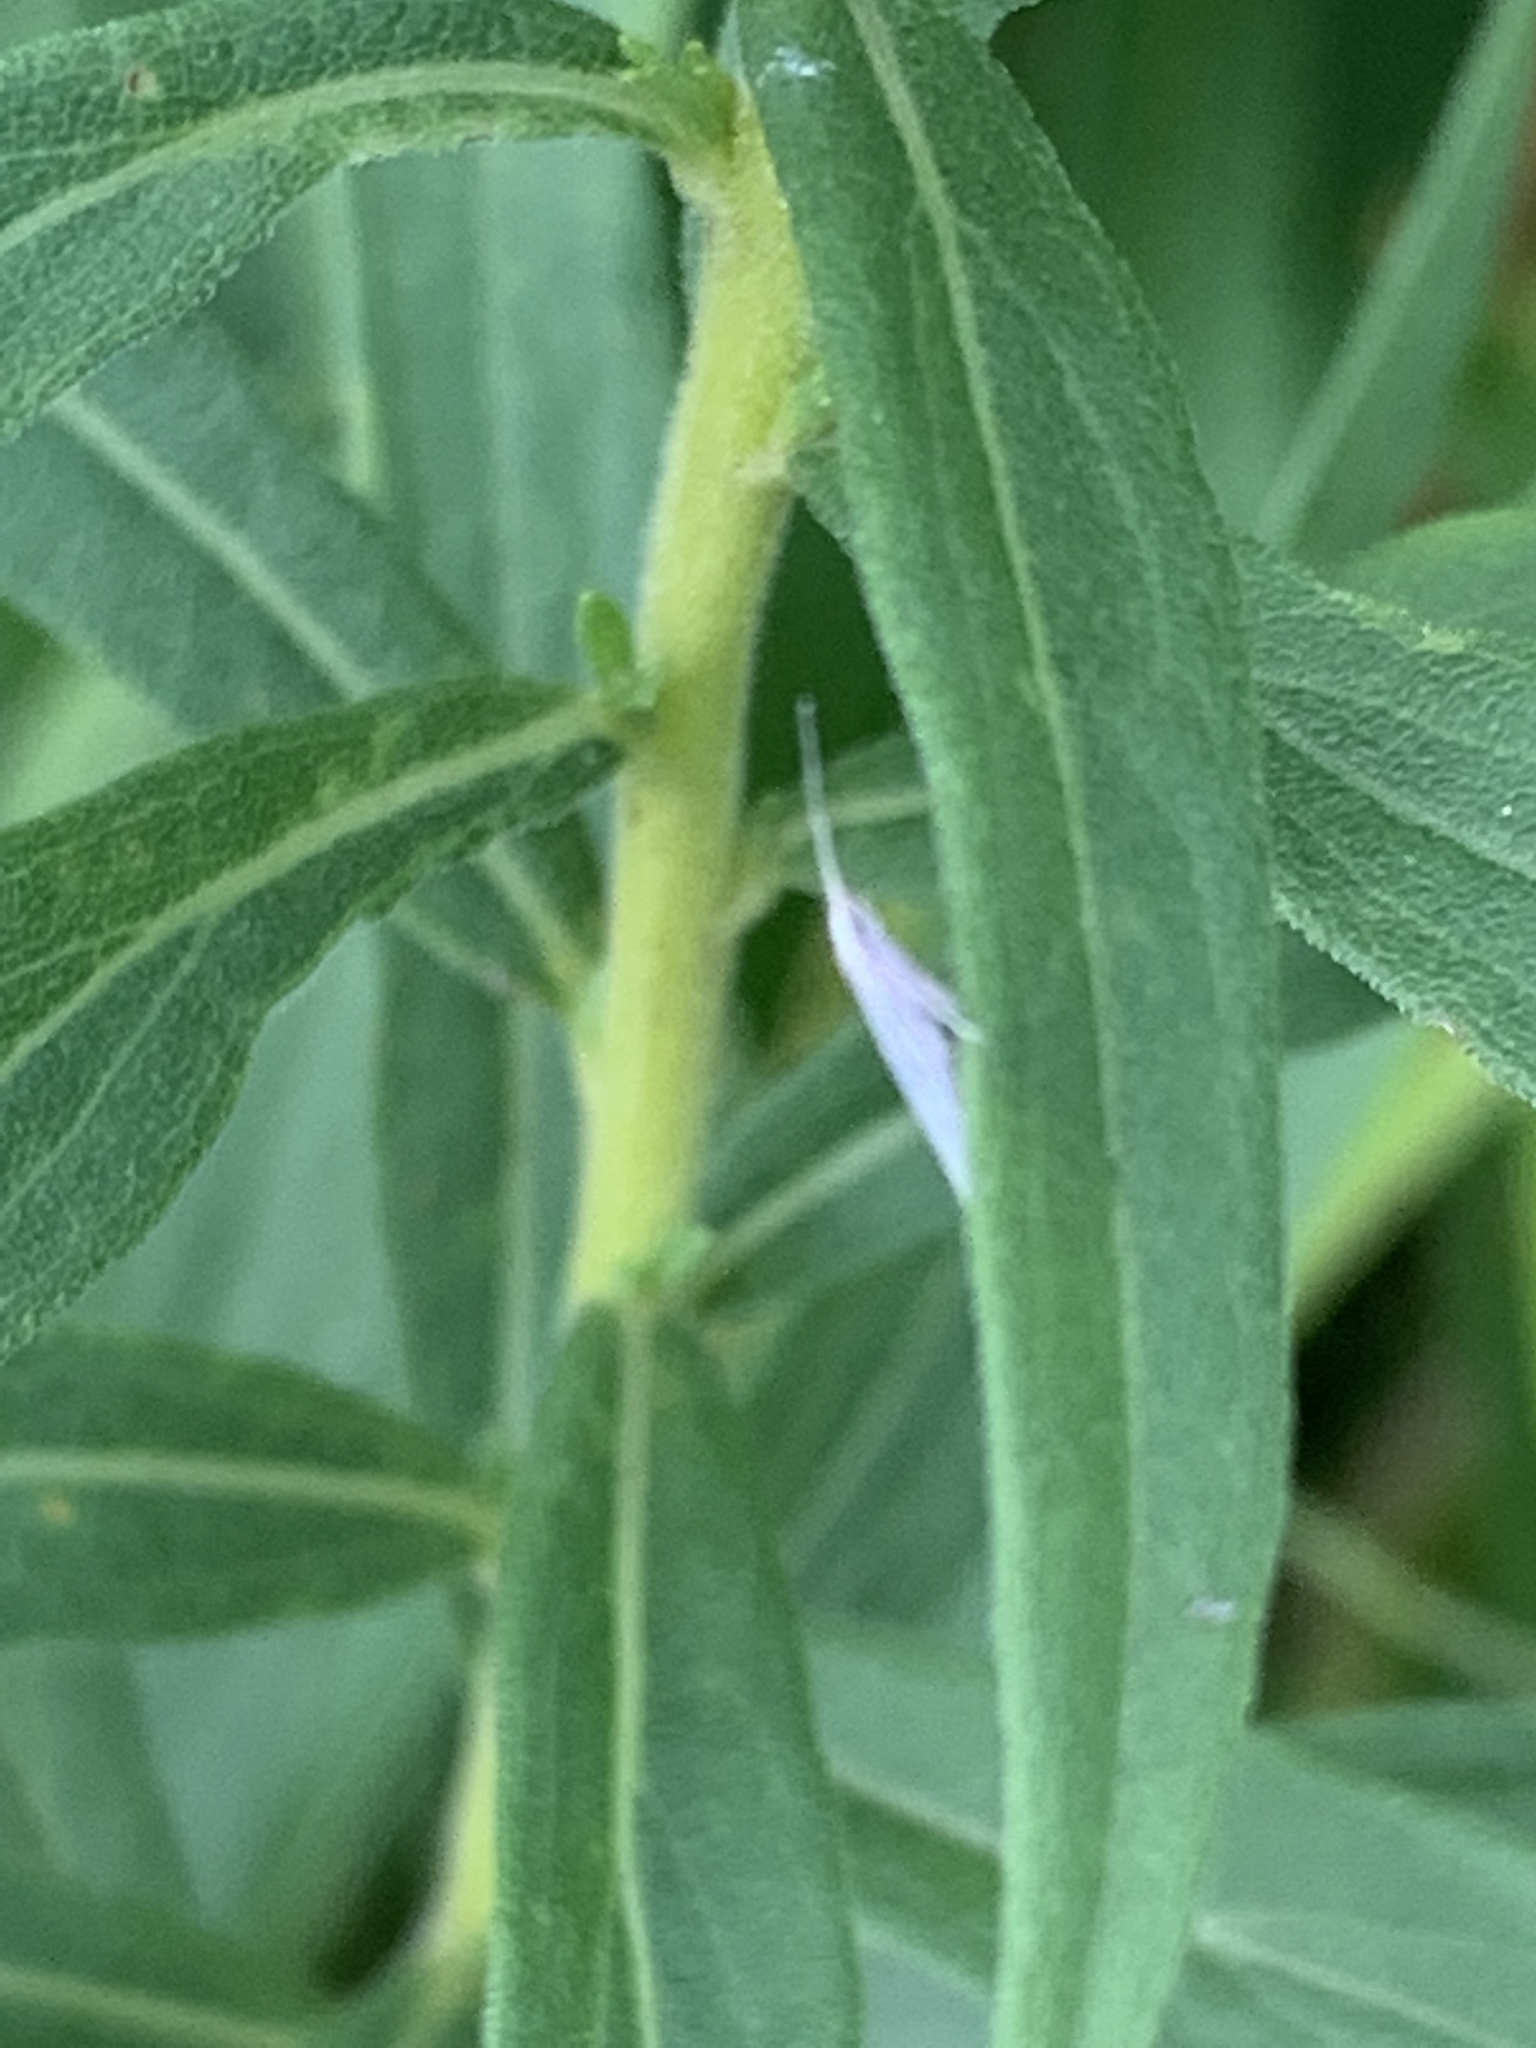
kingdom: Animalia
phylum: Arthropoda
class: Insecta
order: Lepidoptera
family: Coleophoridae
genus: Coleophora
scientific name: Coleophora
